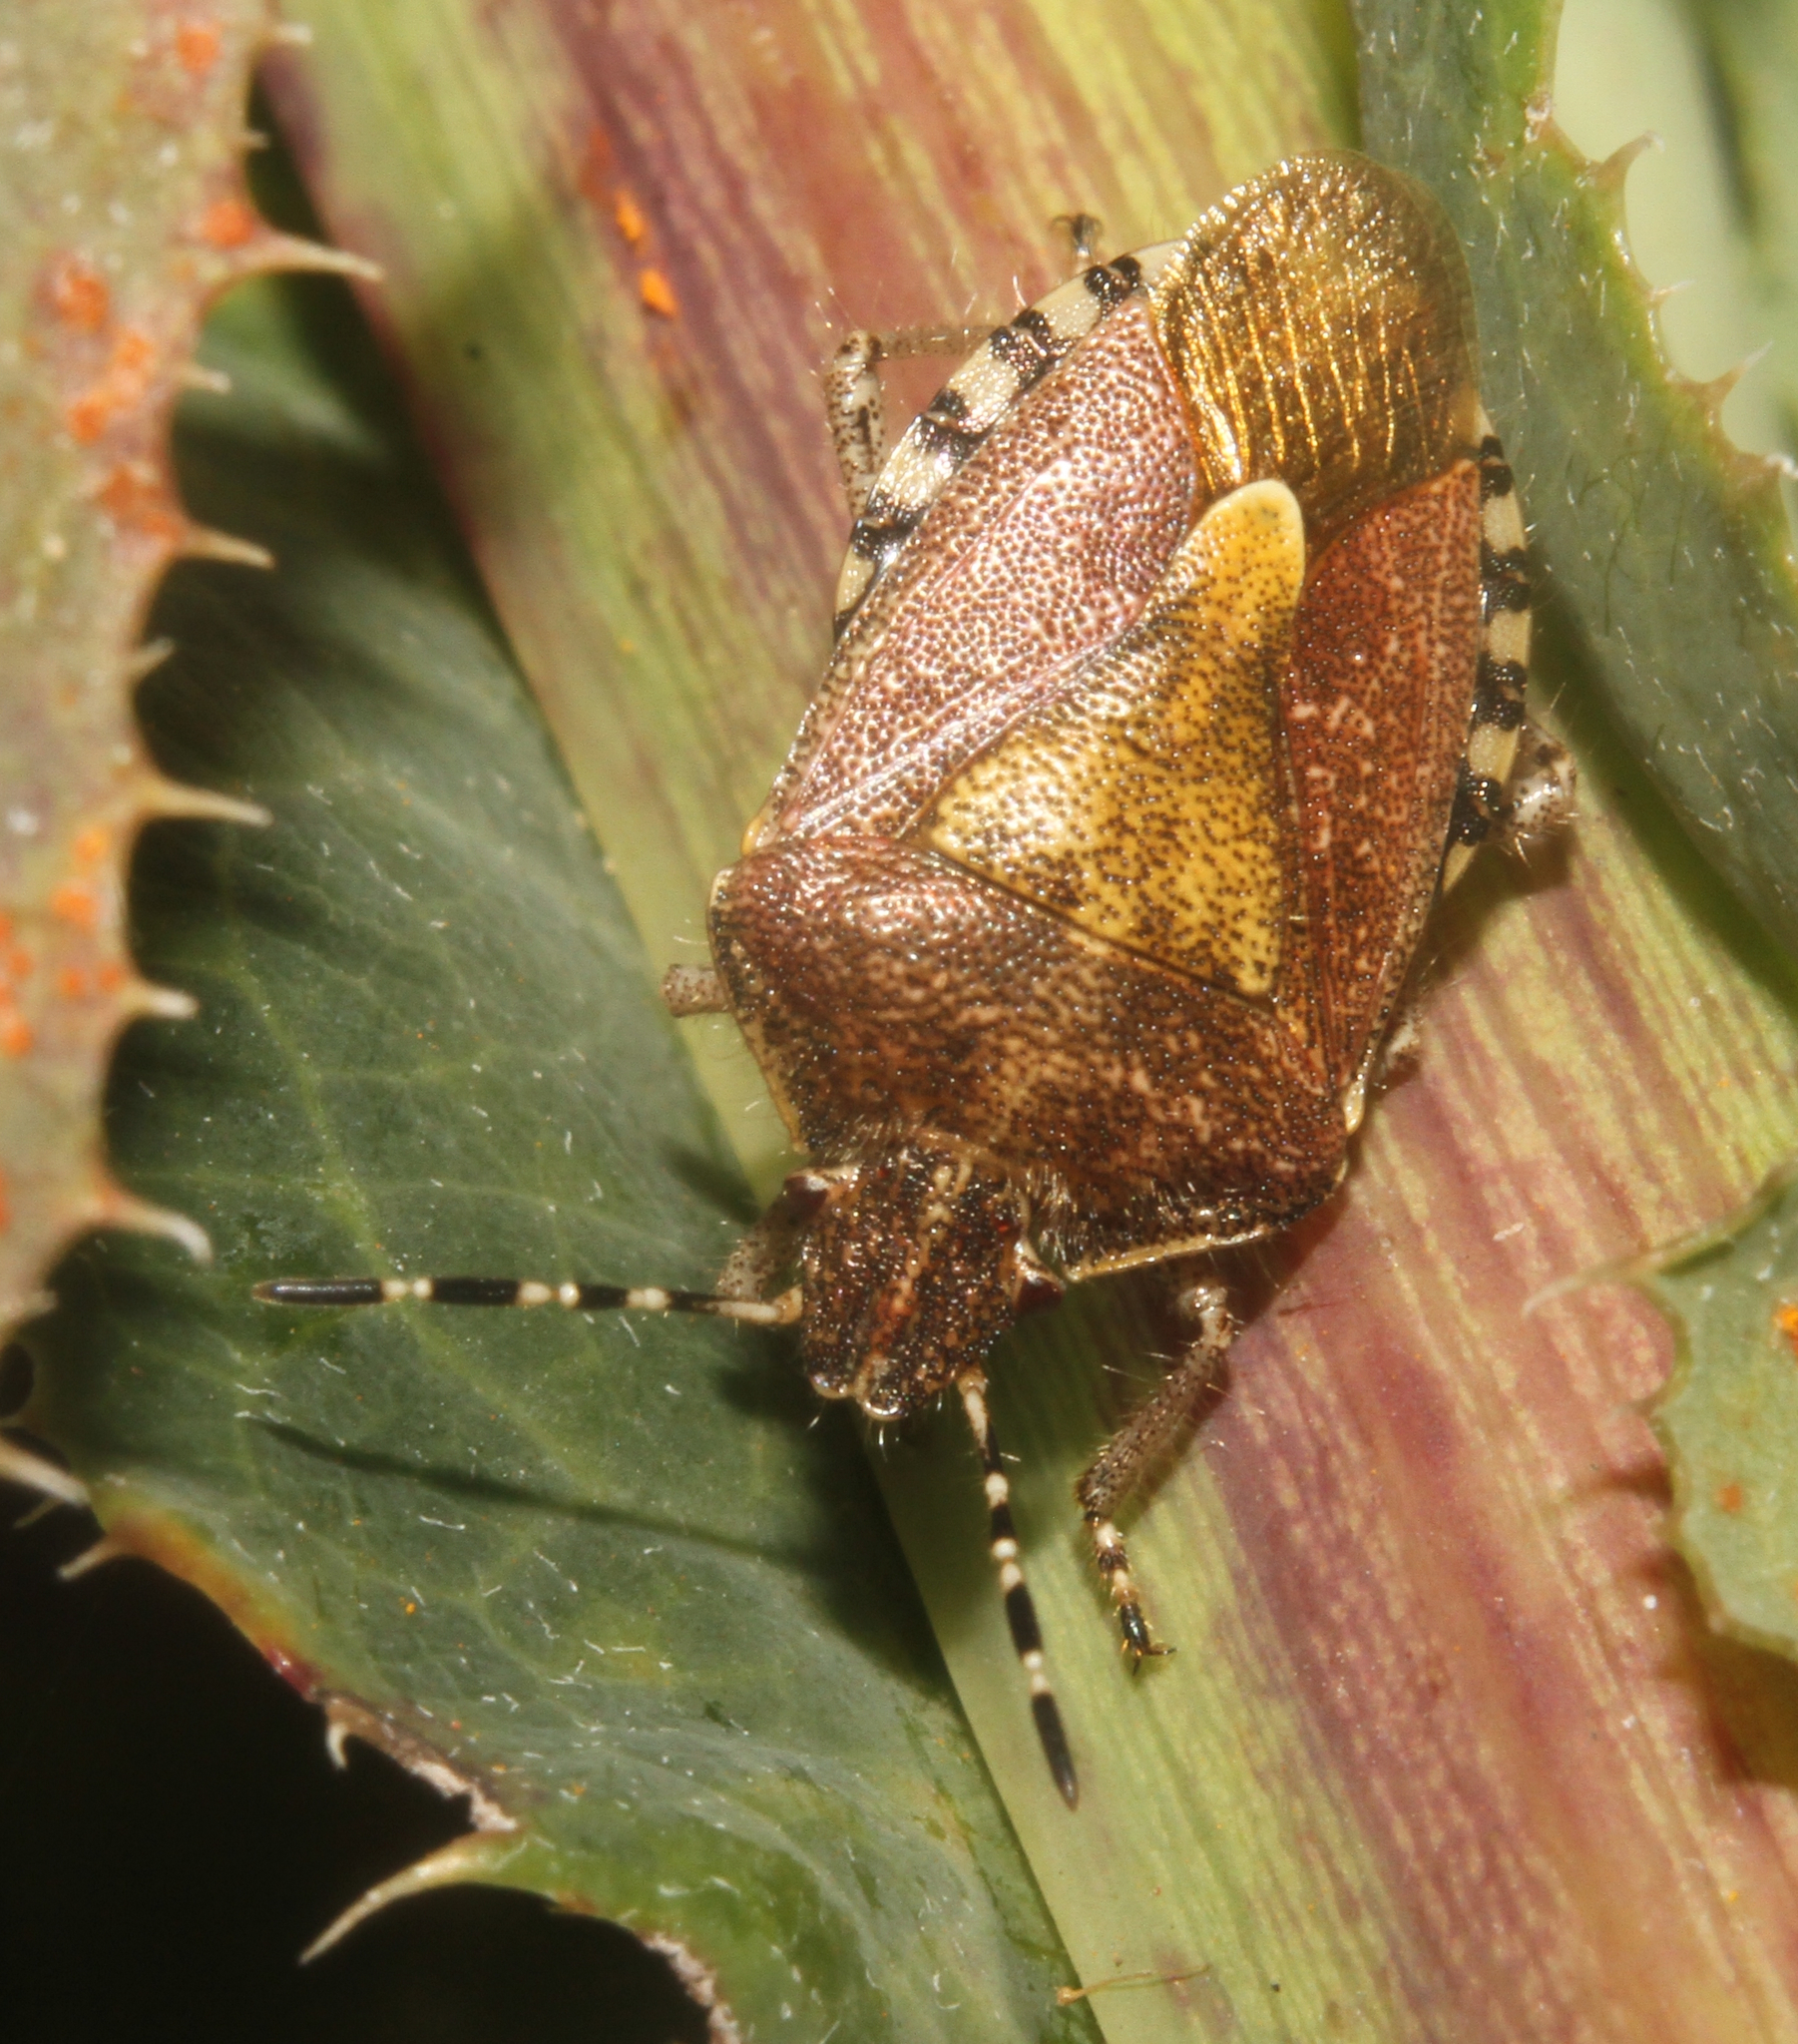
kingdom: Animalia
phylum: Arthropoda
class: Insecta
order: Hemiptera
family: Pentatomidae
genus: Dolycoris
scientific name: Dolycoris baccarum
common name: Sloe bug
